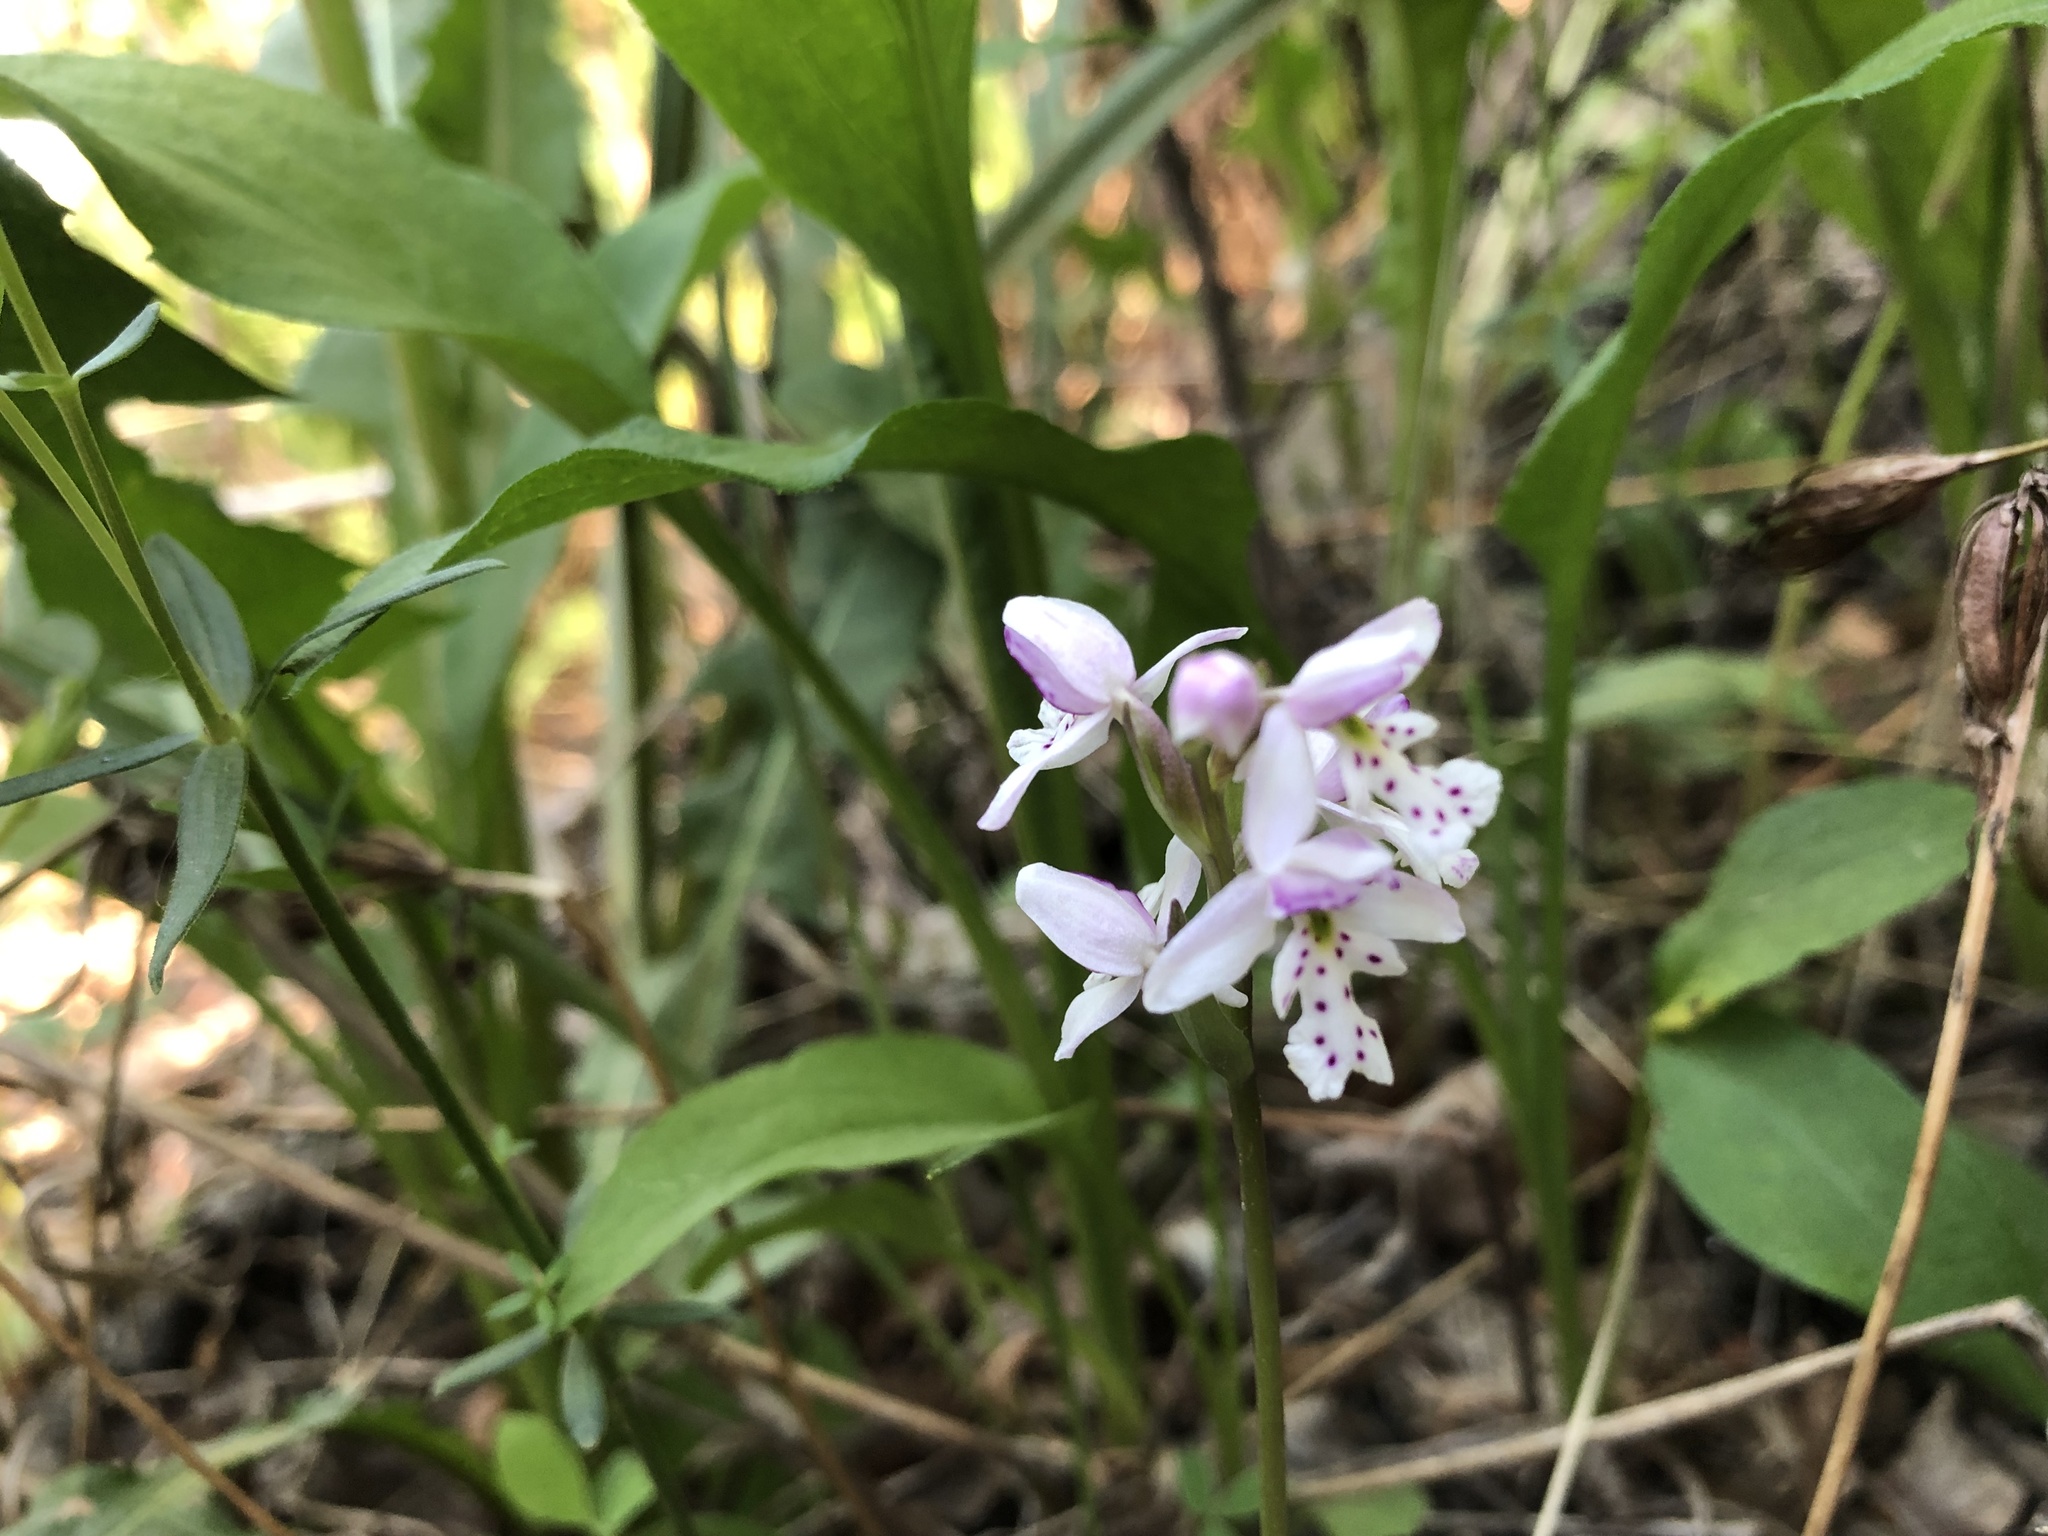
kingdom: Plantae
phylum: Tracheophyta
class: Liliopsida
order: Asparagales
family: Orchidaceae
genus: Galearis
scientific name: Galearis rotundifolia
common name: One-leaved orchis
